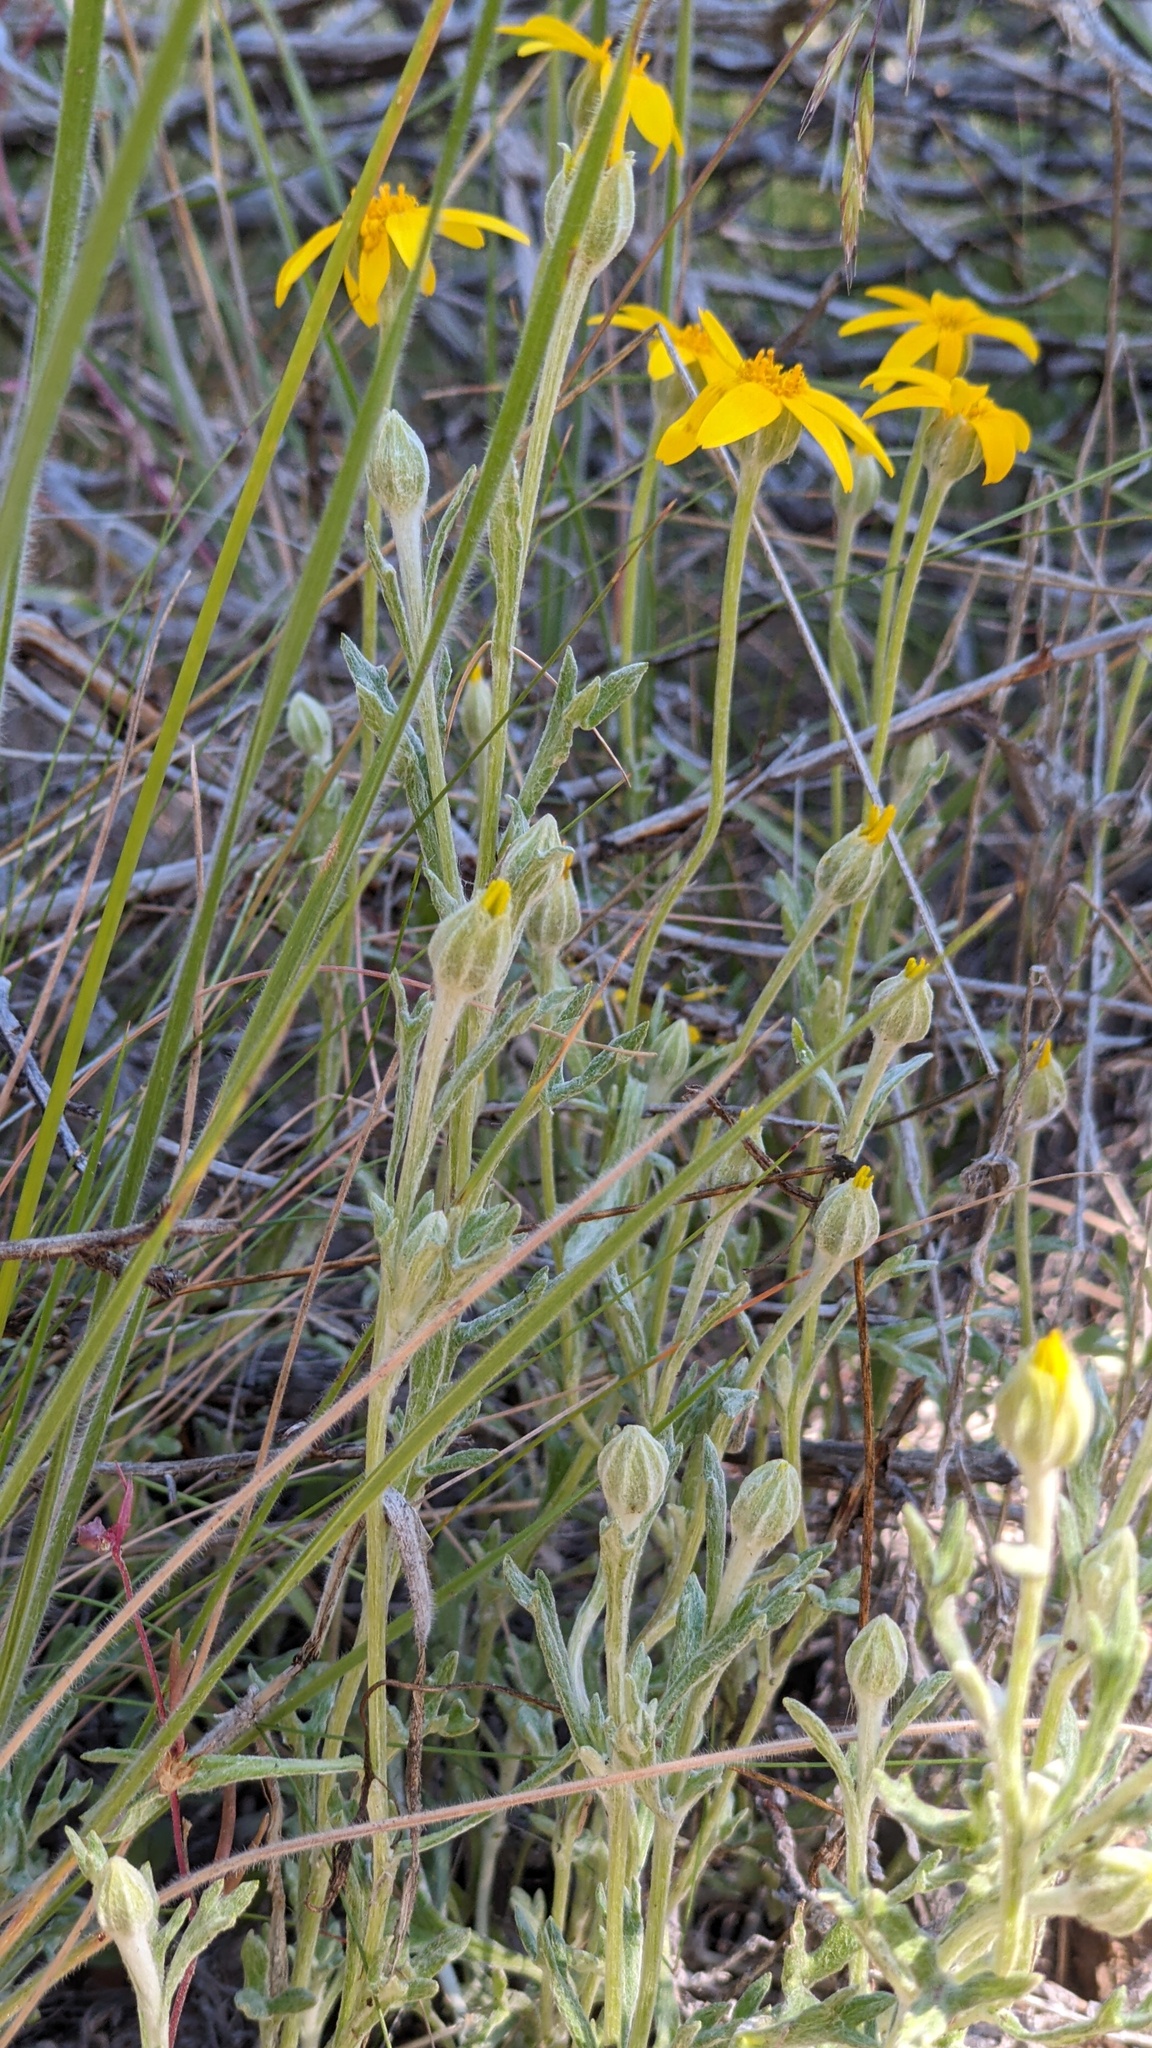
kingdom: Plantae
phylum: Tracheophyta
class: Magnoliopsida
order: Asterales
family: Asteraceae
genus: Eriophyllum
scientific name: Eriophyllum lanatum
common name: Common woolly-sunflower
